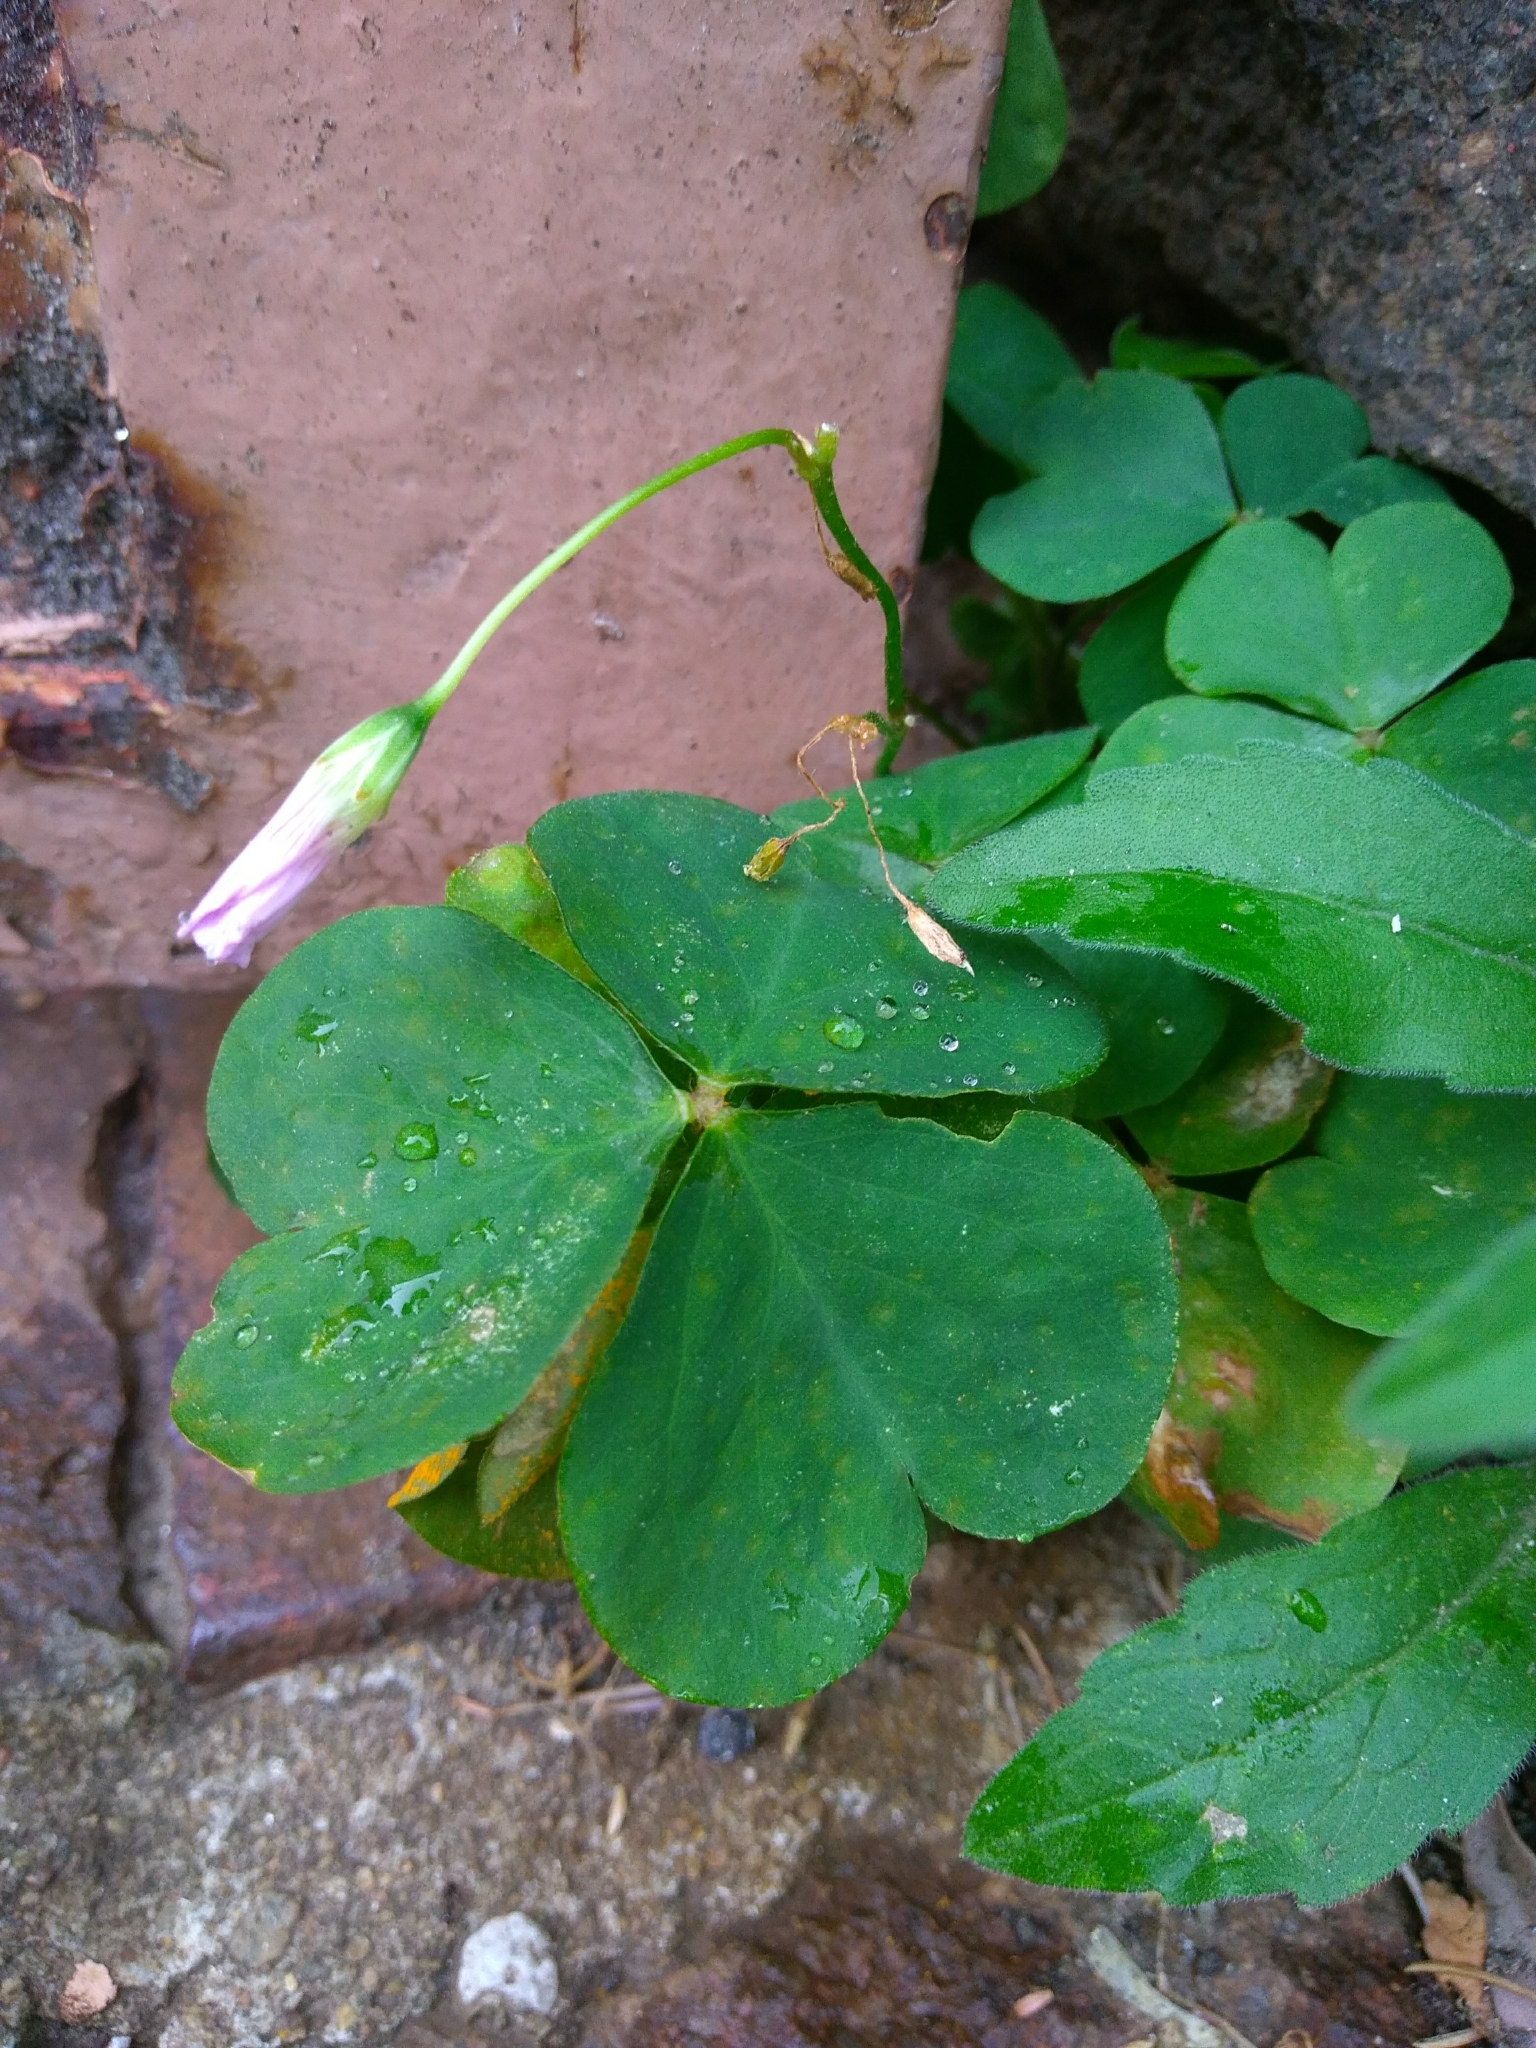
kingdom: Plantae
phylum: Tracheophyta
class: Magnoliopsida
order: Oxalidales
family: Oxalidaceae
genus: Oxalis
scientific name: Oxalis acetosella
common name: Wood-sorrel
